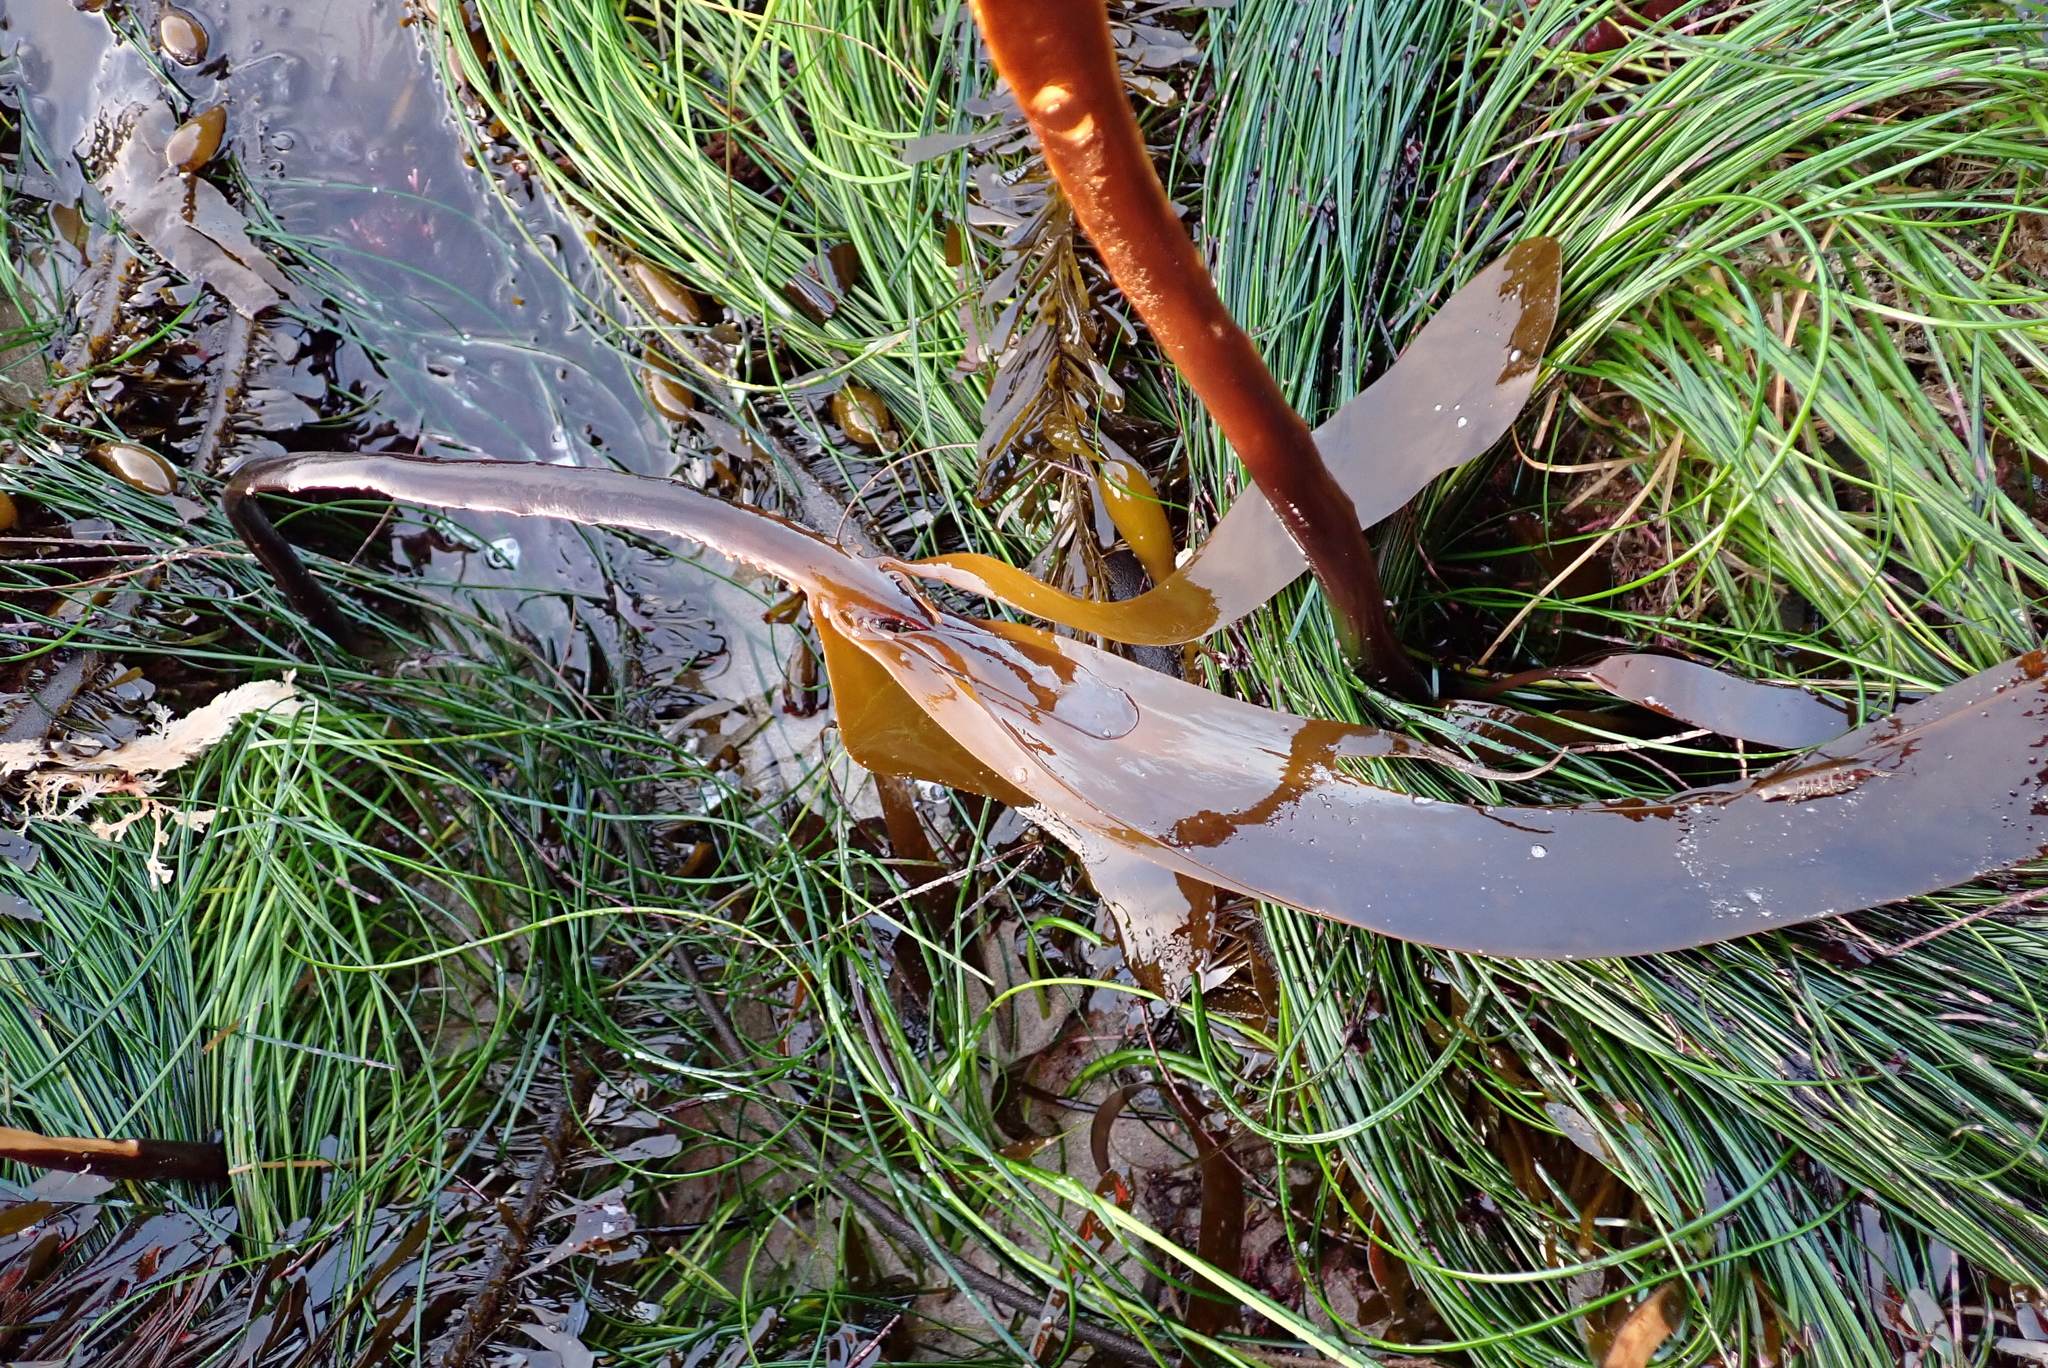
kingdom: Chromista
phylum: Ochrophyta
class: Phaeophyceae
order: Laminariales
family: Alariaceae
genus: Pterygophora
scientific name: Pterygophora californica
